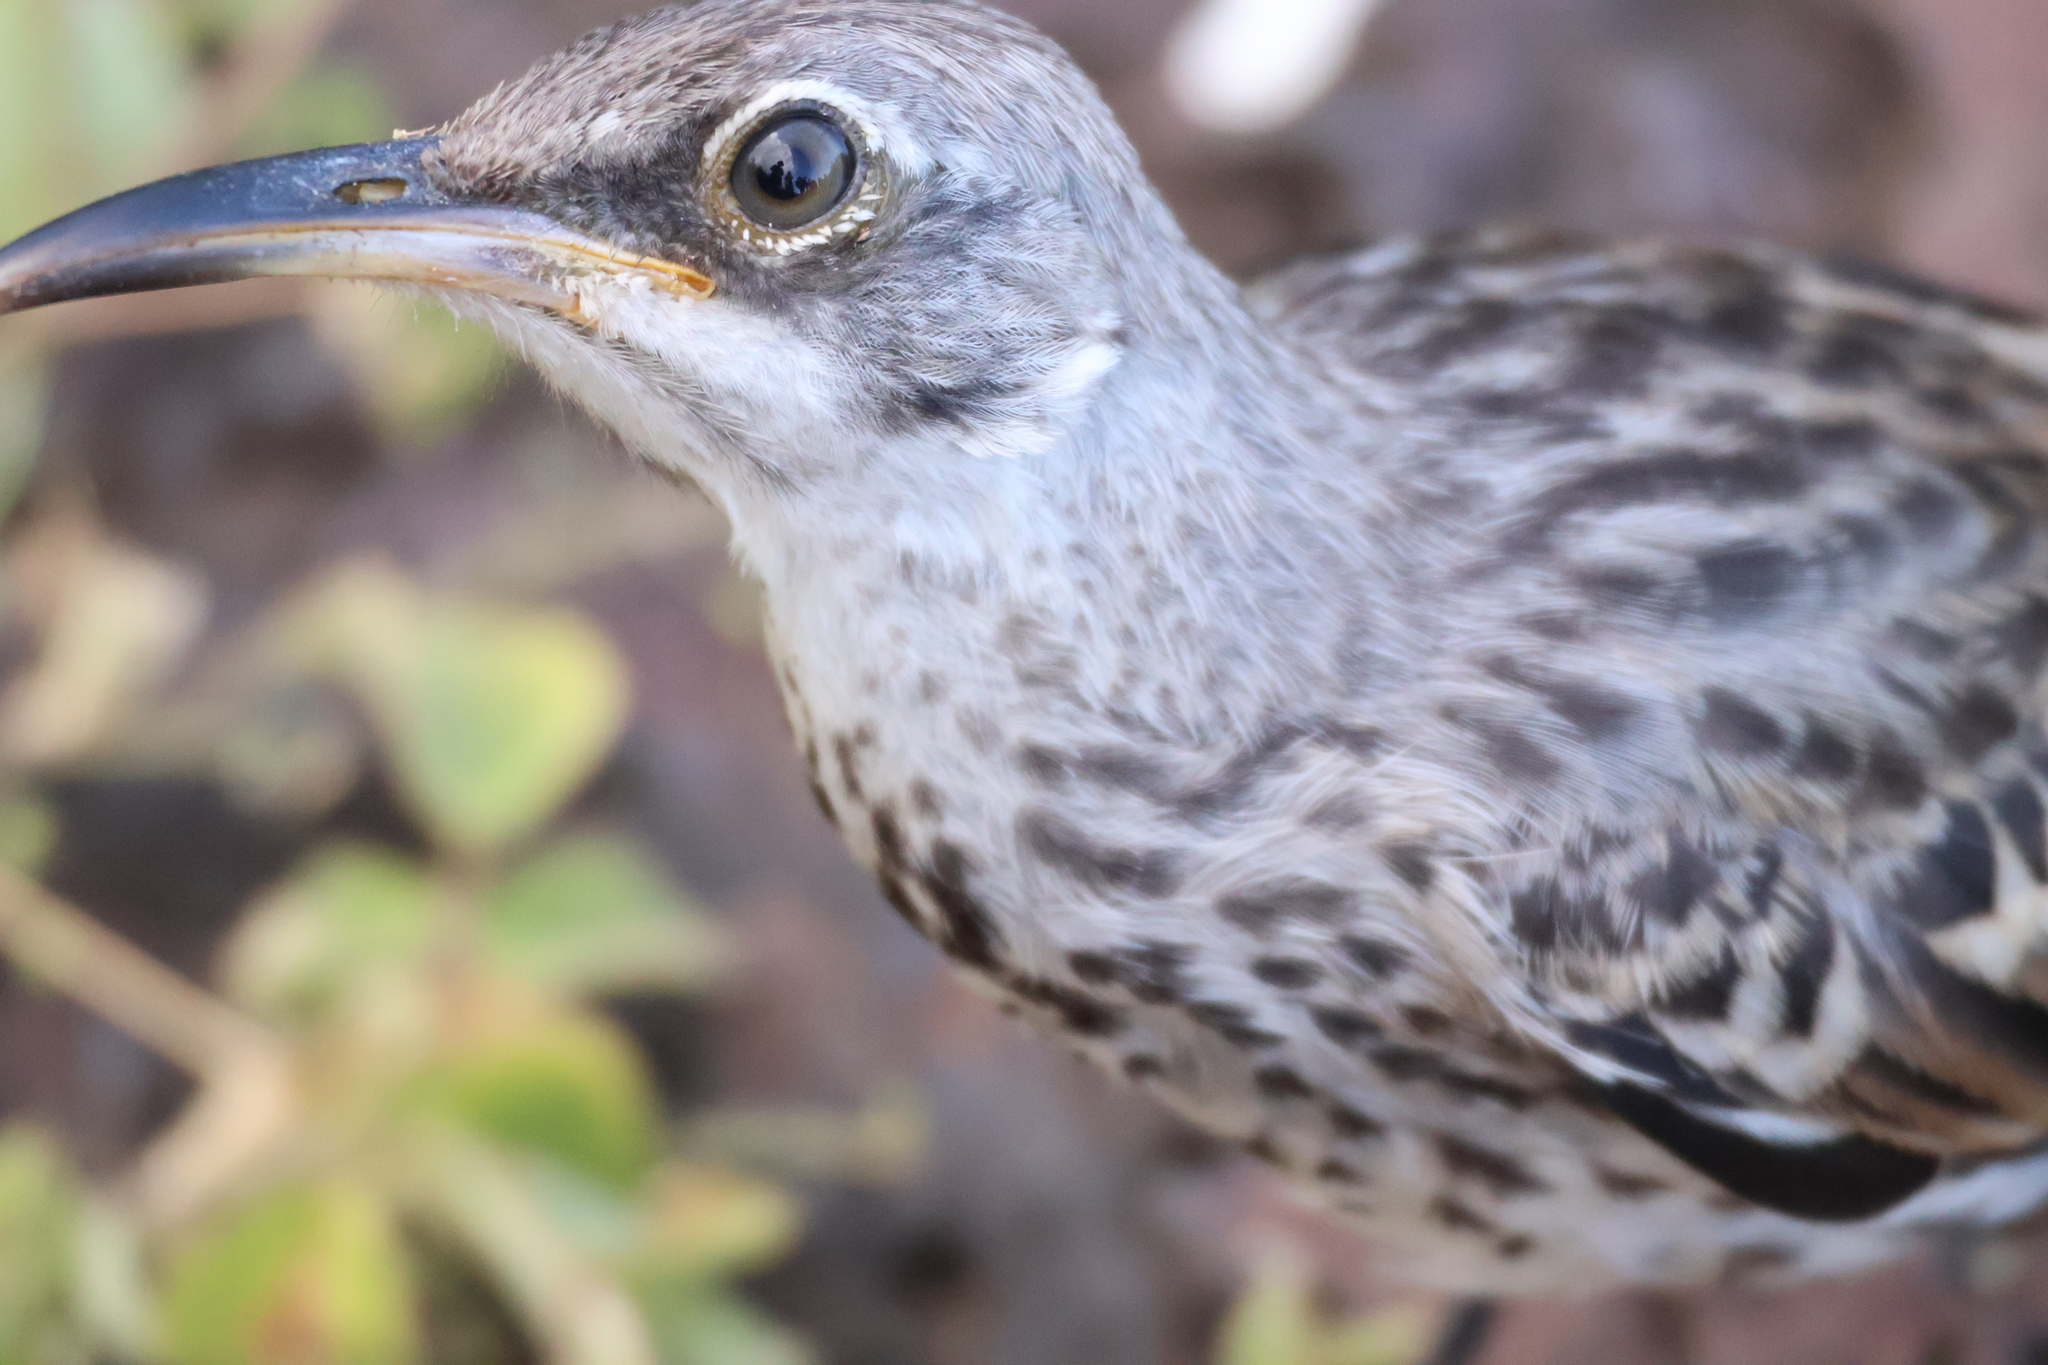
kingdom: Animalia
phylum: Chordata
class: Aves
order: Passeriformes
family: Mimidae
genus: Mimus
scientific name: Mimus macdonaldi
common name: Espanola mockingbird
